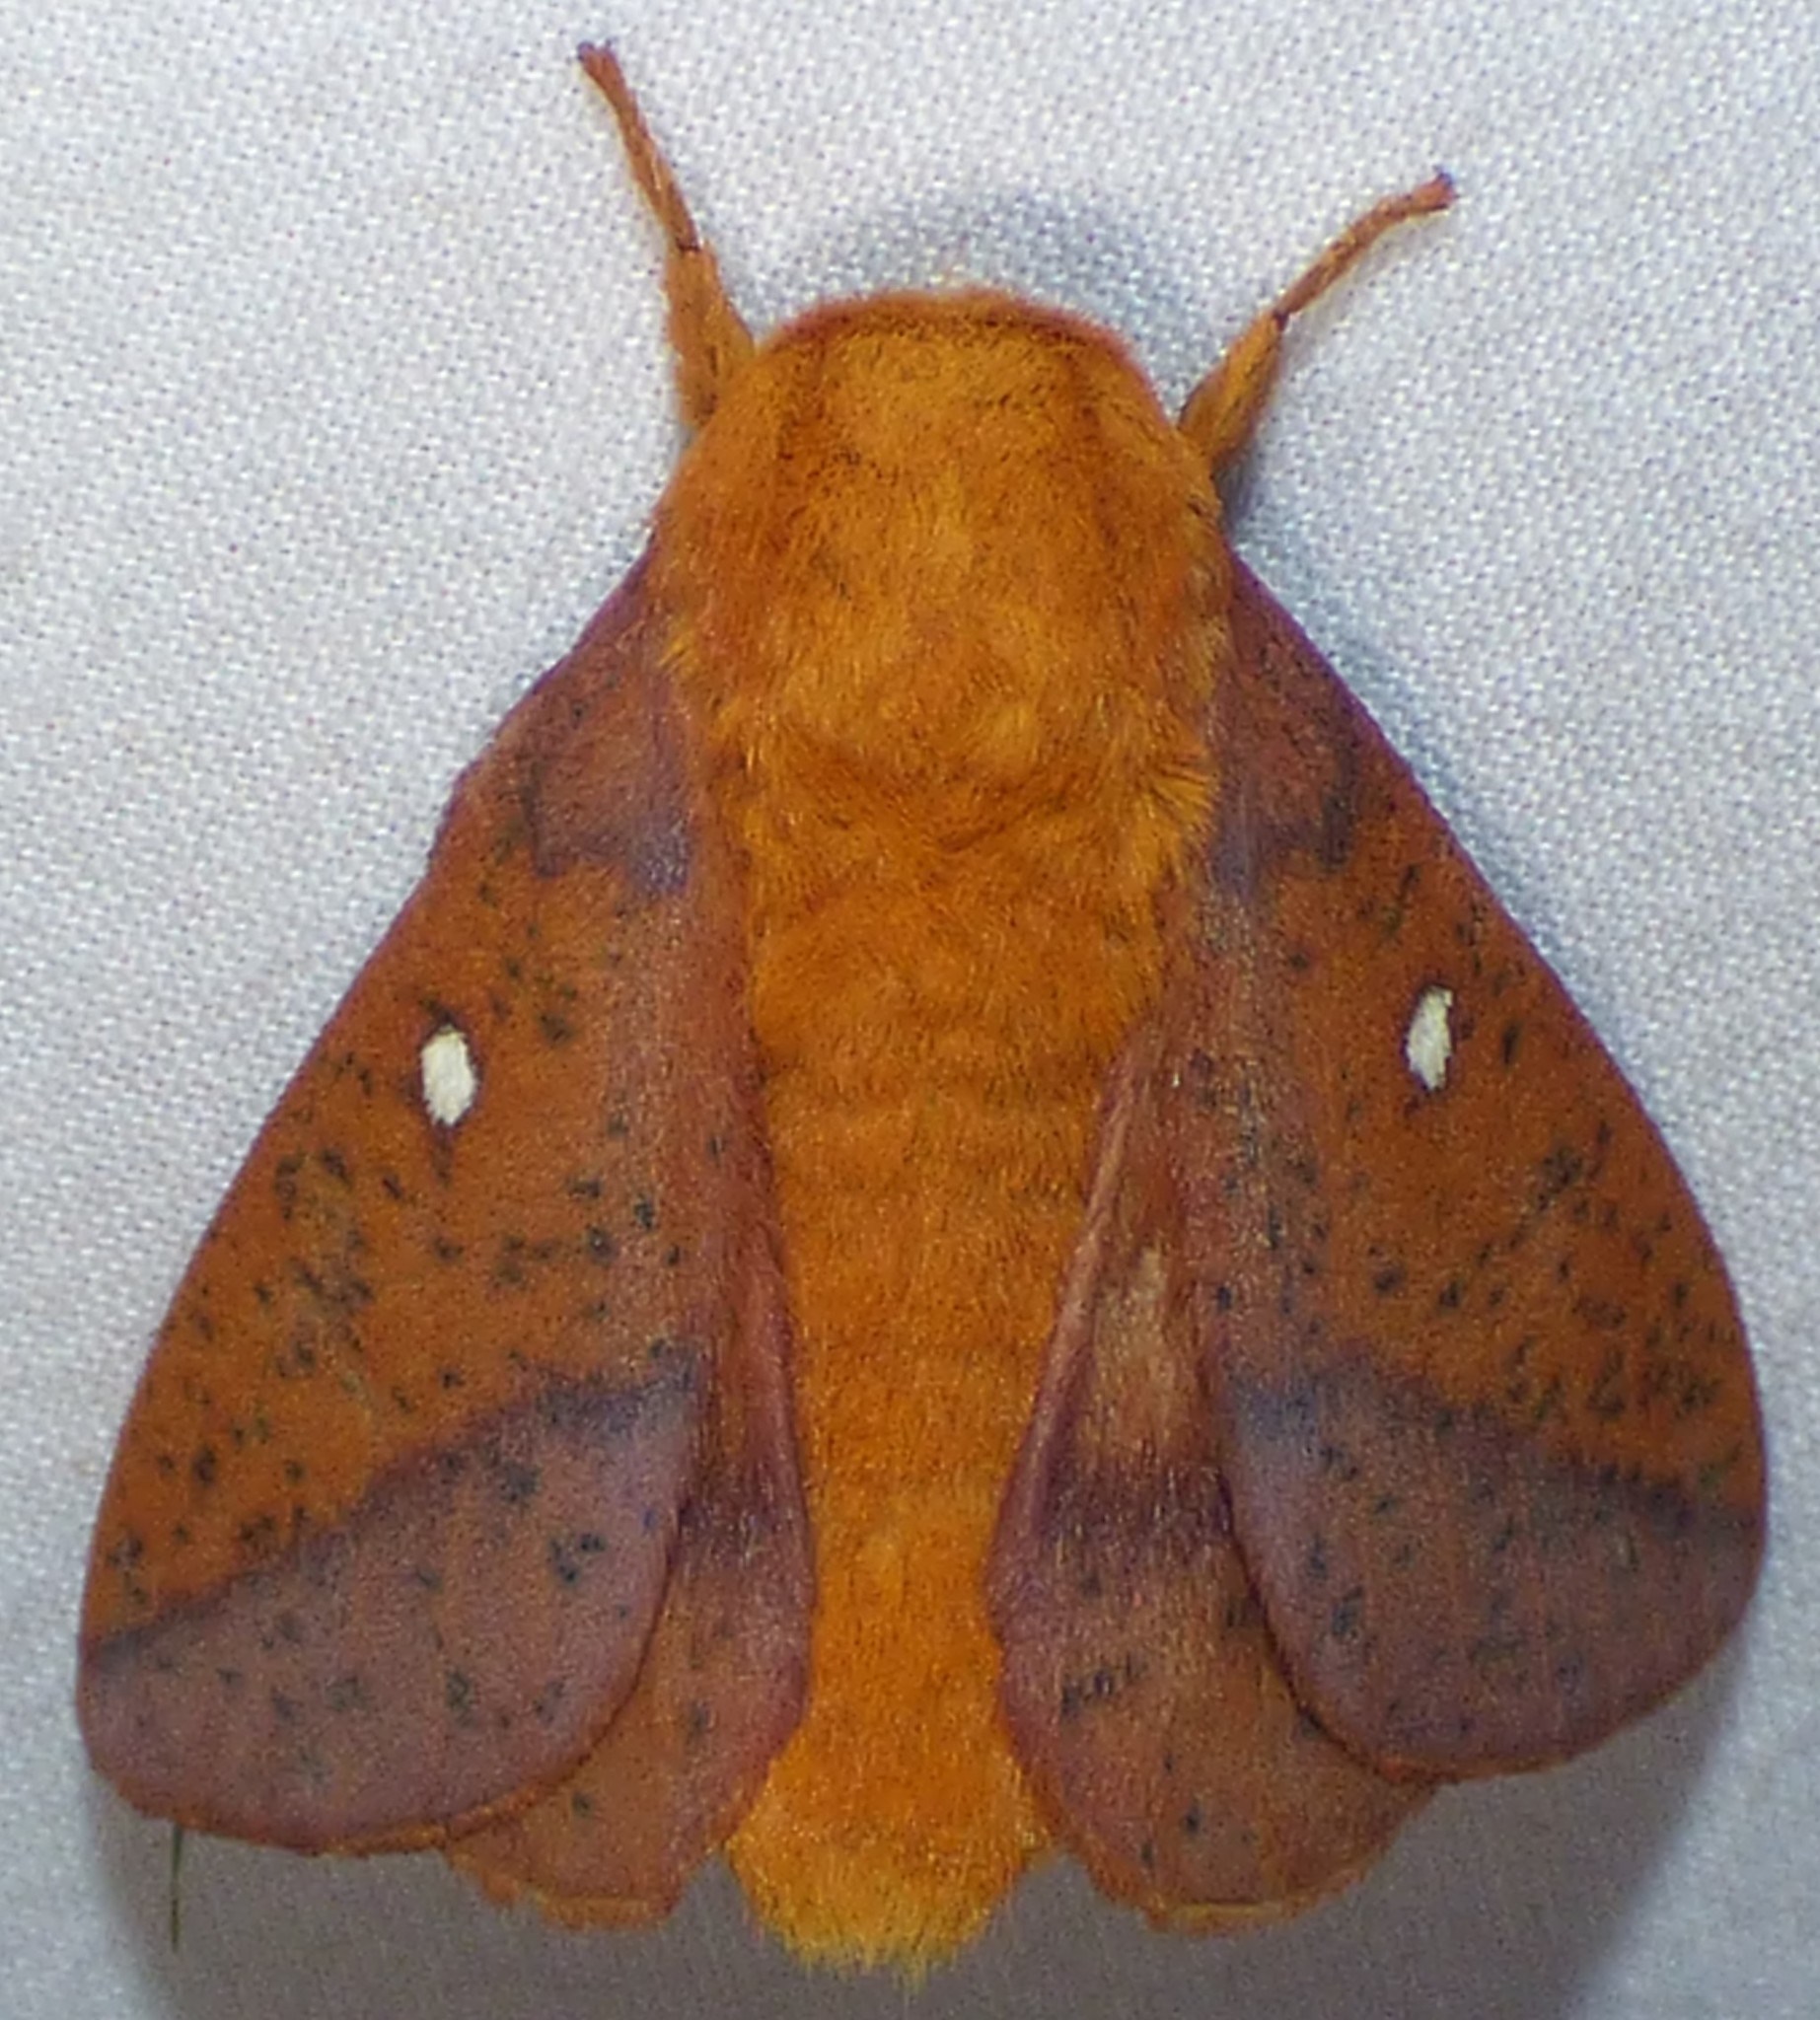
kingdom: Animalia
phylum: Arthropoda
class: Insecta
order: Lepidoptera
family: Saturniidae
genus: Anisota
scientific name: Anisota stigma
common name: Spiny oakworm moth
